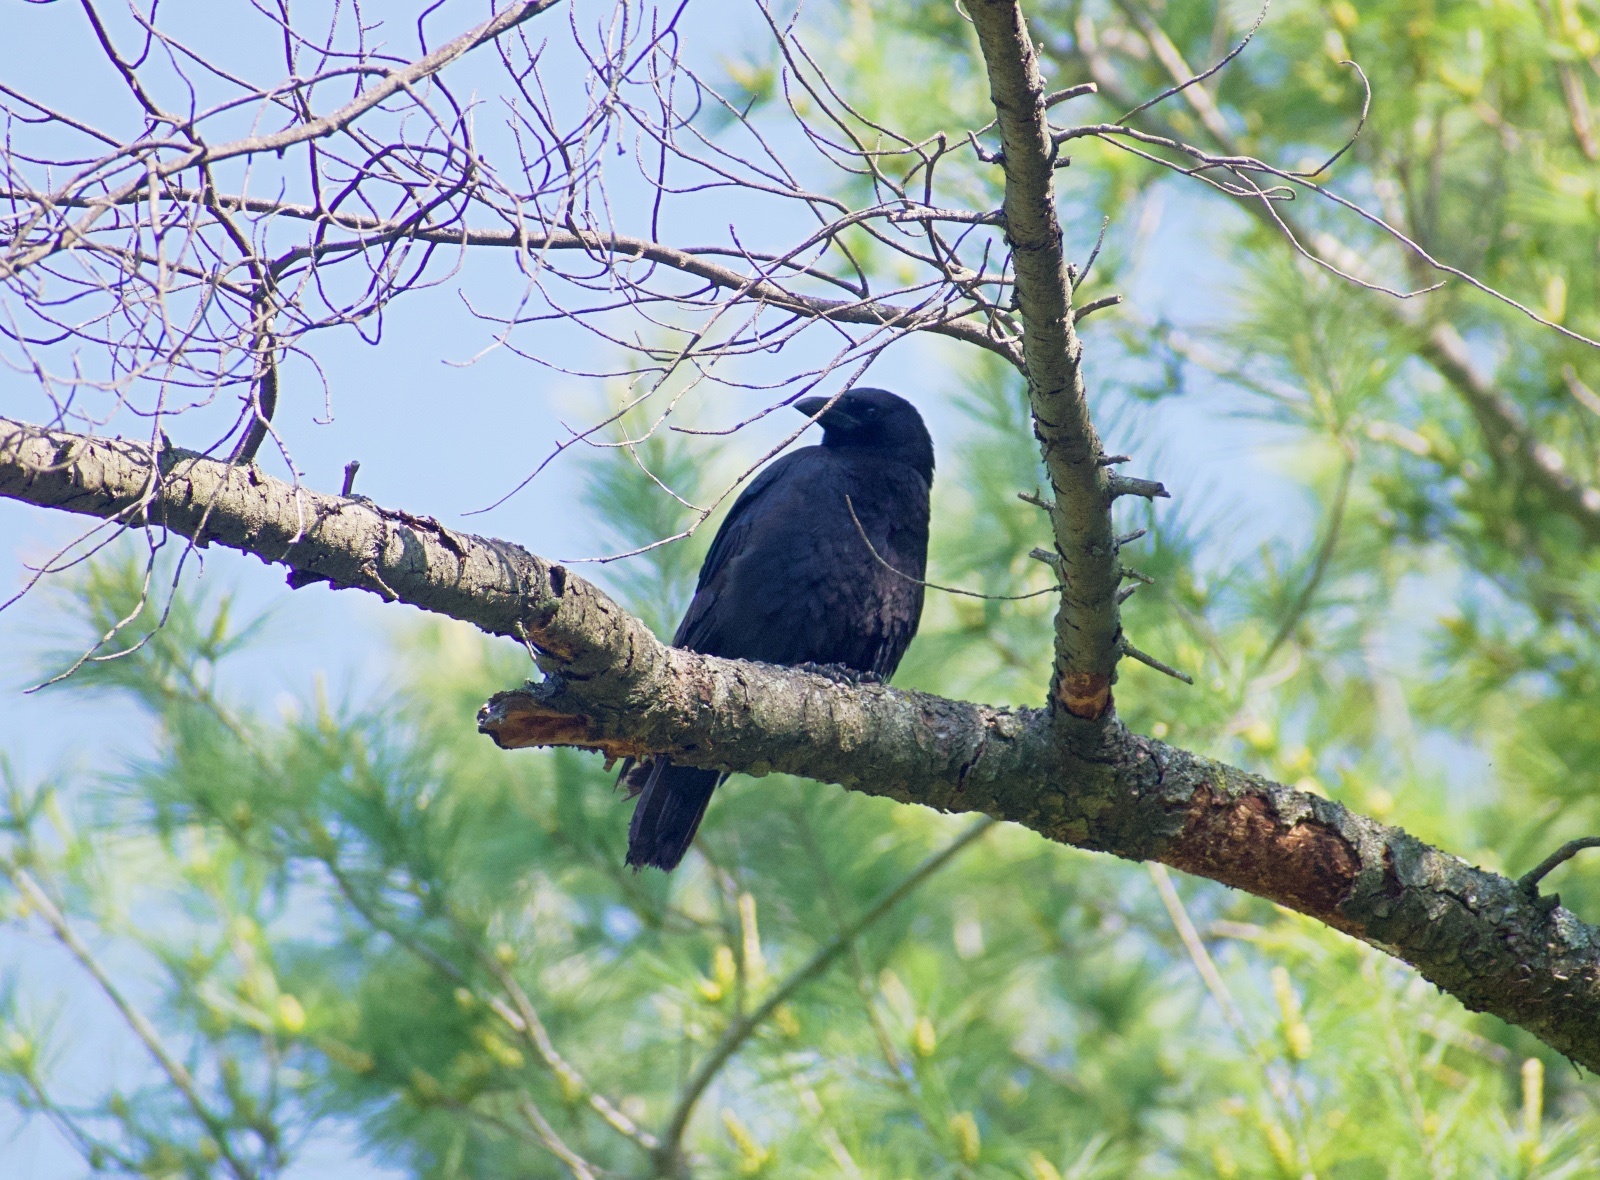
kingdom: Animalia
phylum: Chordata
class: Aves
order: Passeriformes
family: Corvidae
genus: Corvus
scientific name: Corvus brachyrhynchos
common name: American crow
